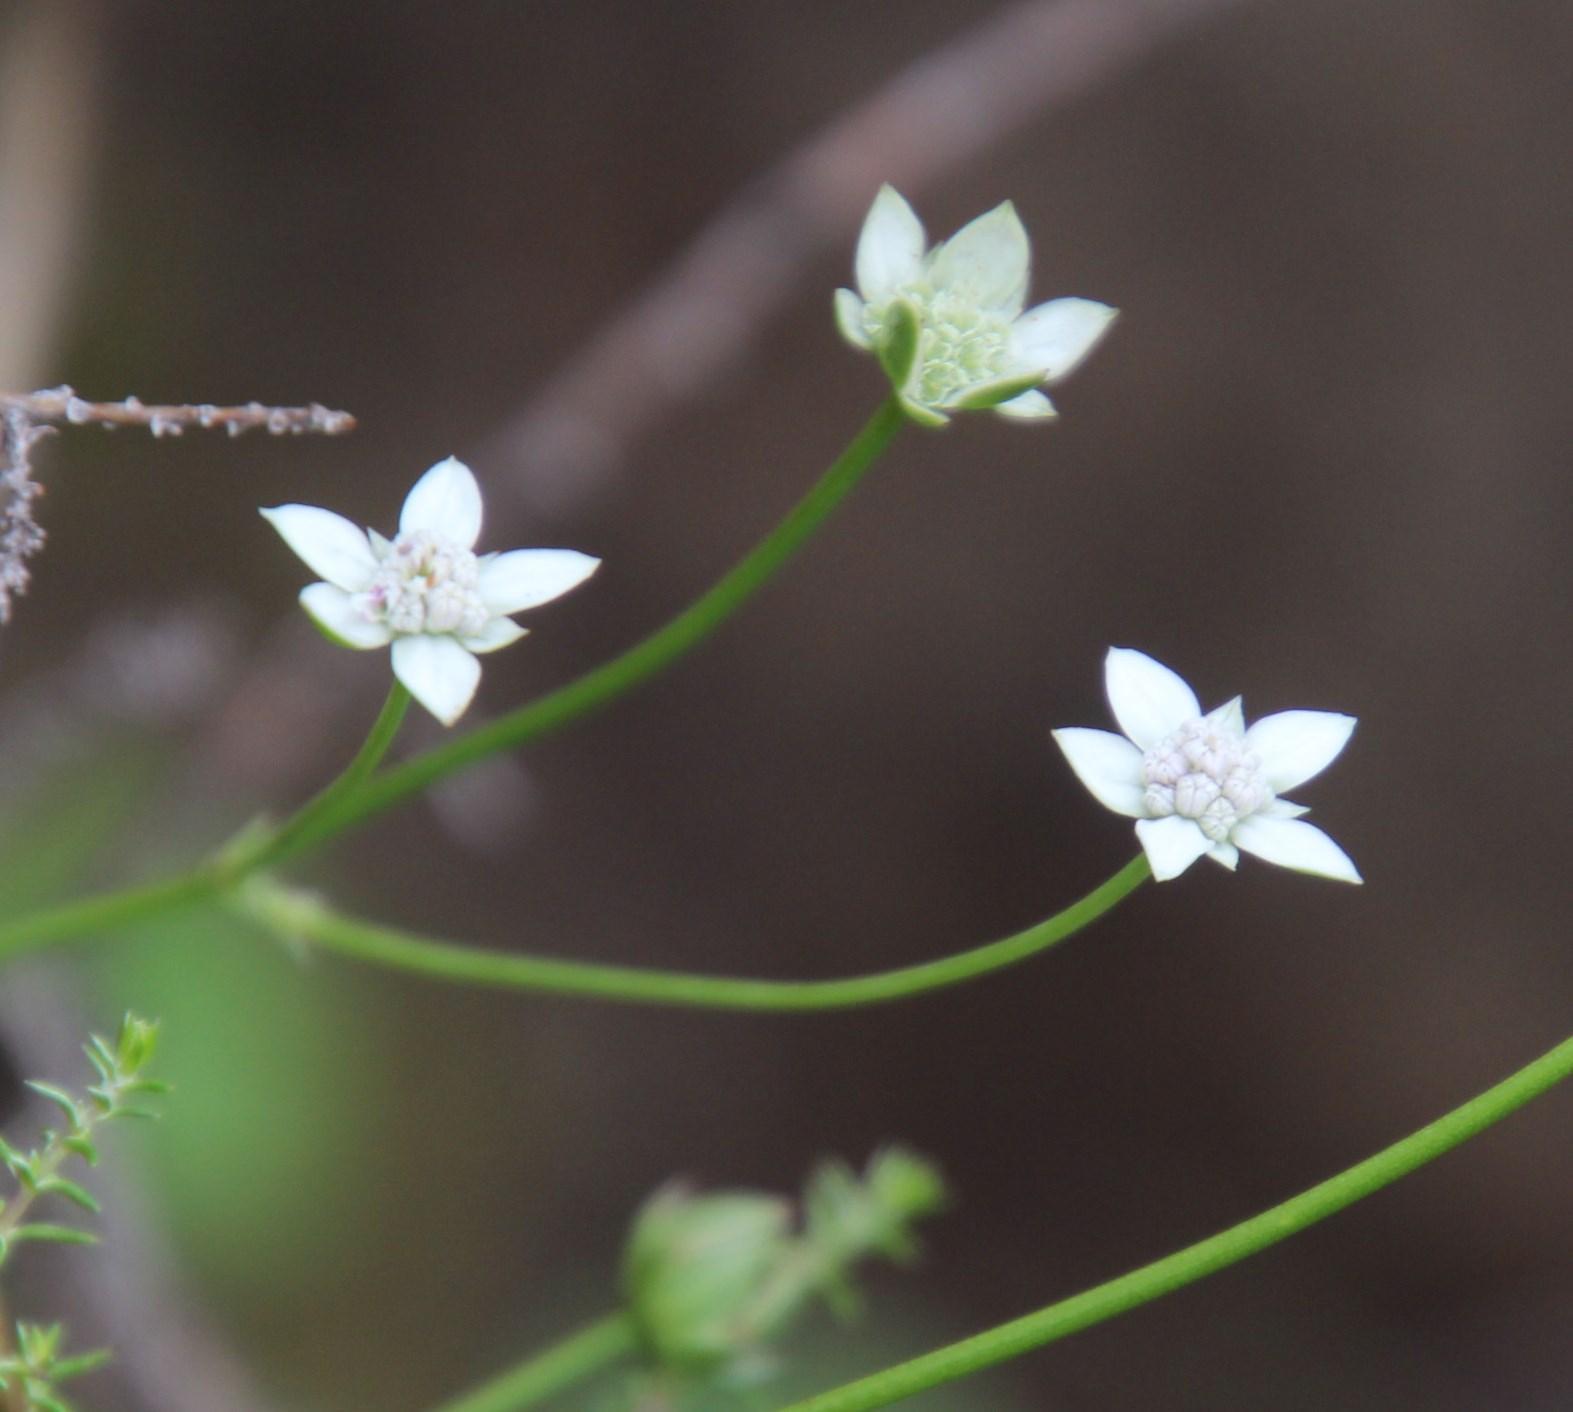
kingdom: Plantae
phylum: Tracheophyta
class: Magnoliopsida
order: Apiales
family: Apiaceae
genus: Alepidea
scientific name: Alepidea serrata
